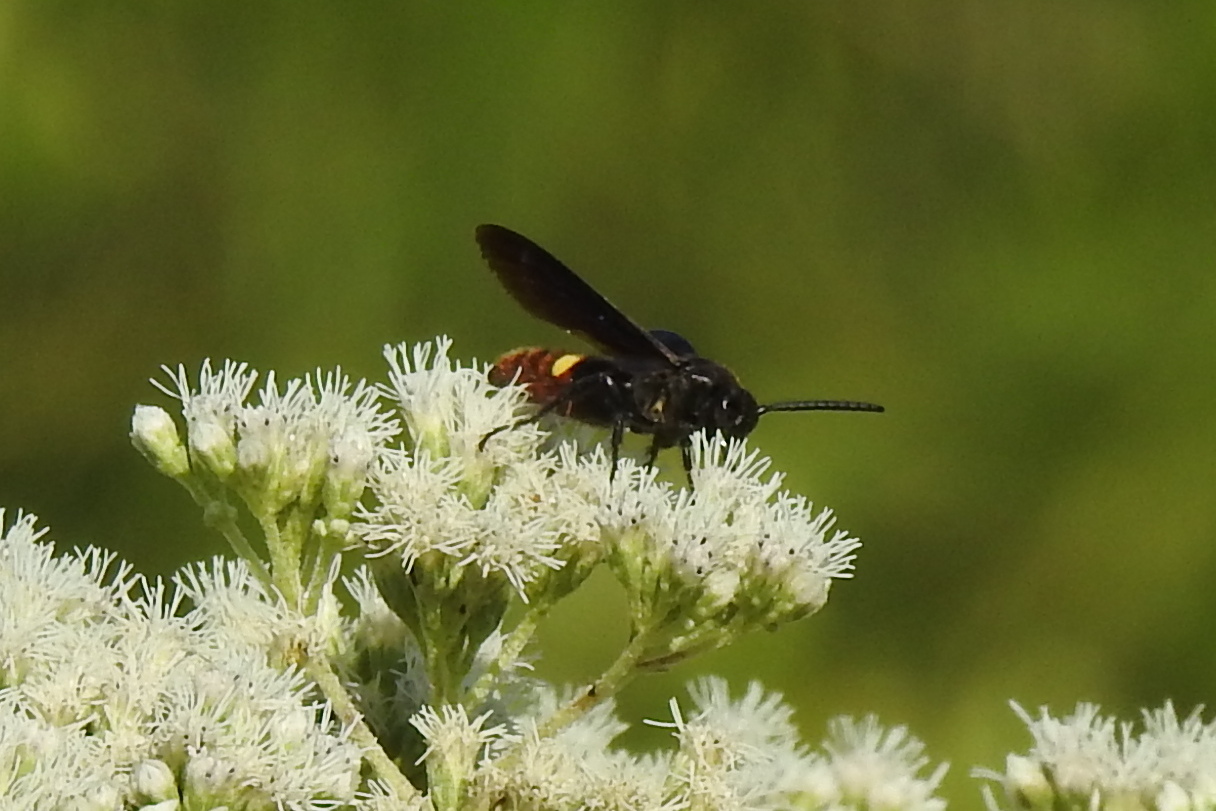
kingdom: Animalia
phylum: Arthropoda
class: Insecta
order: Hymenoptera
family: Scoliidae
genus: Scolia
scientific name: Scolia dubia
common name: Blue-winged scoliid wasp
